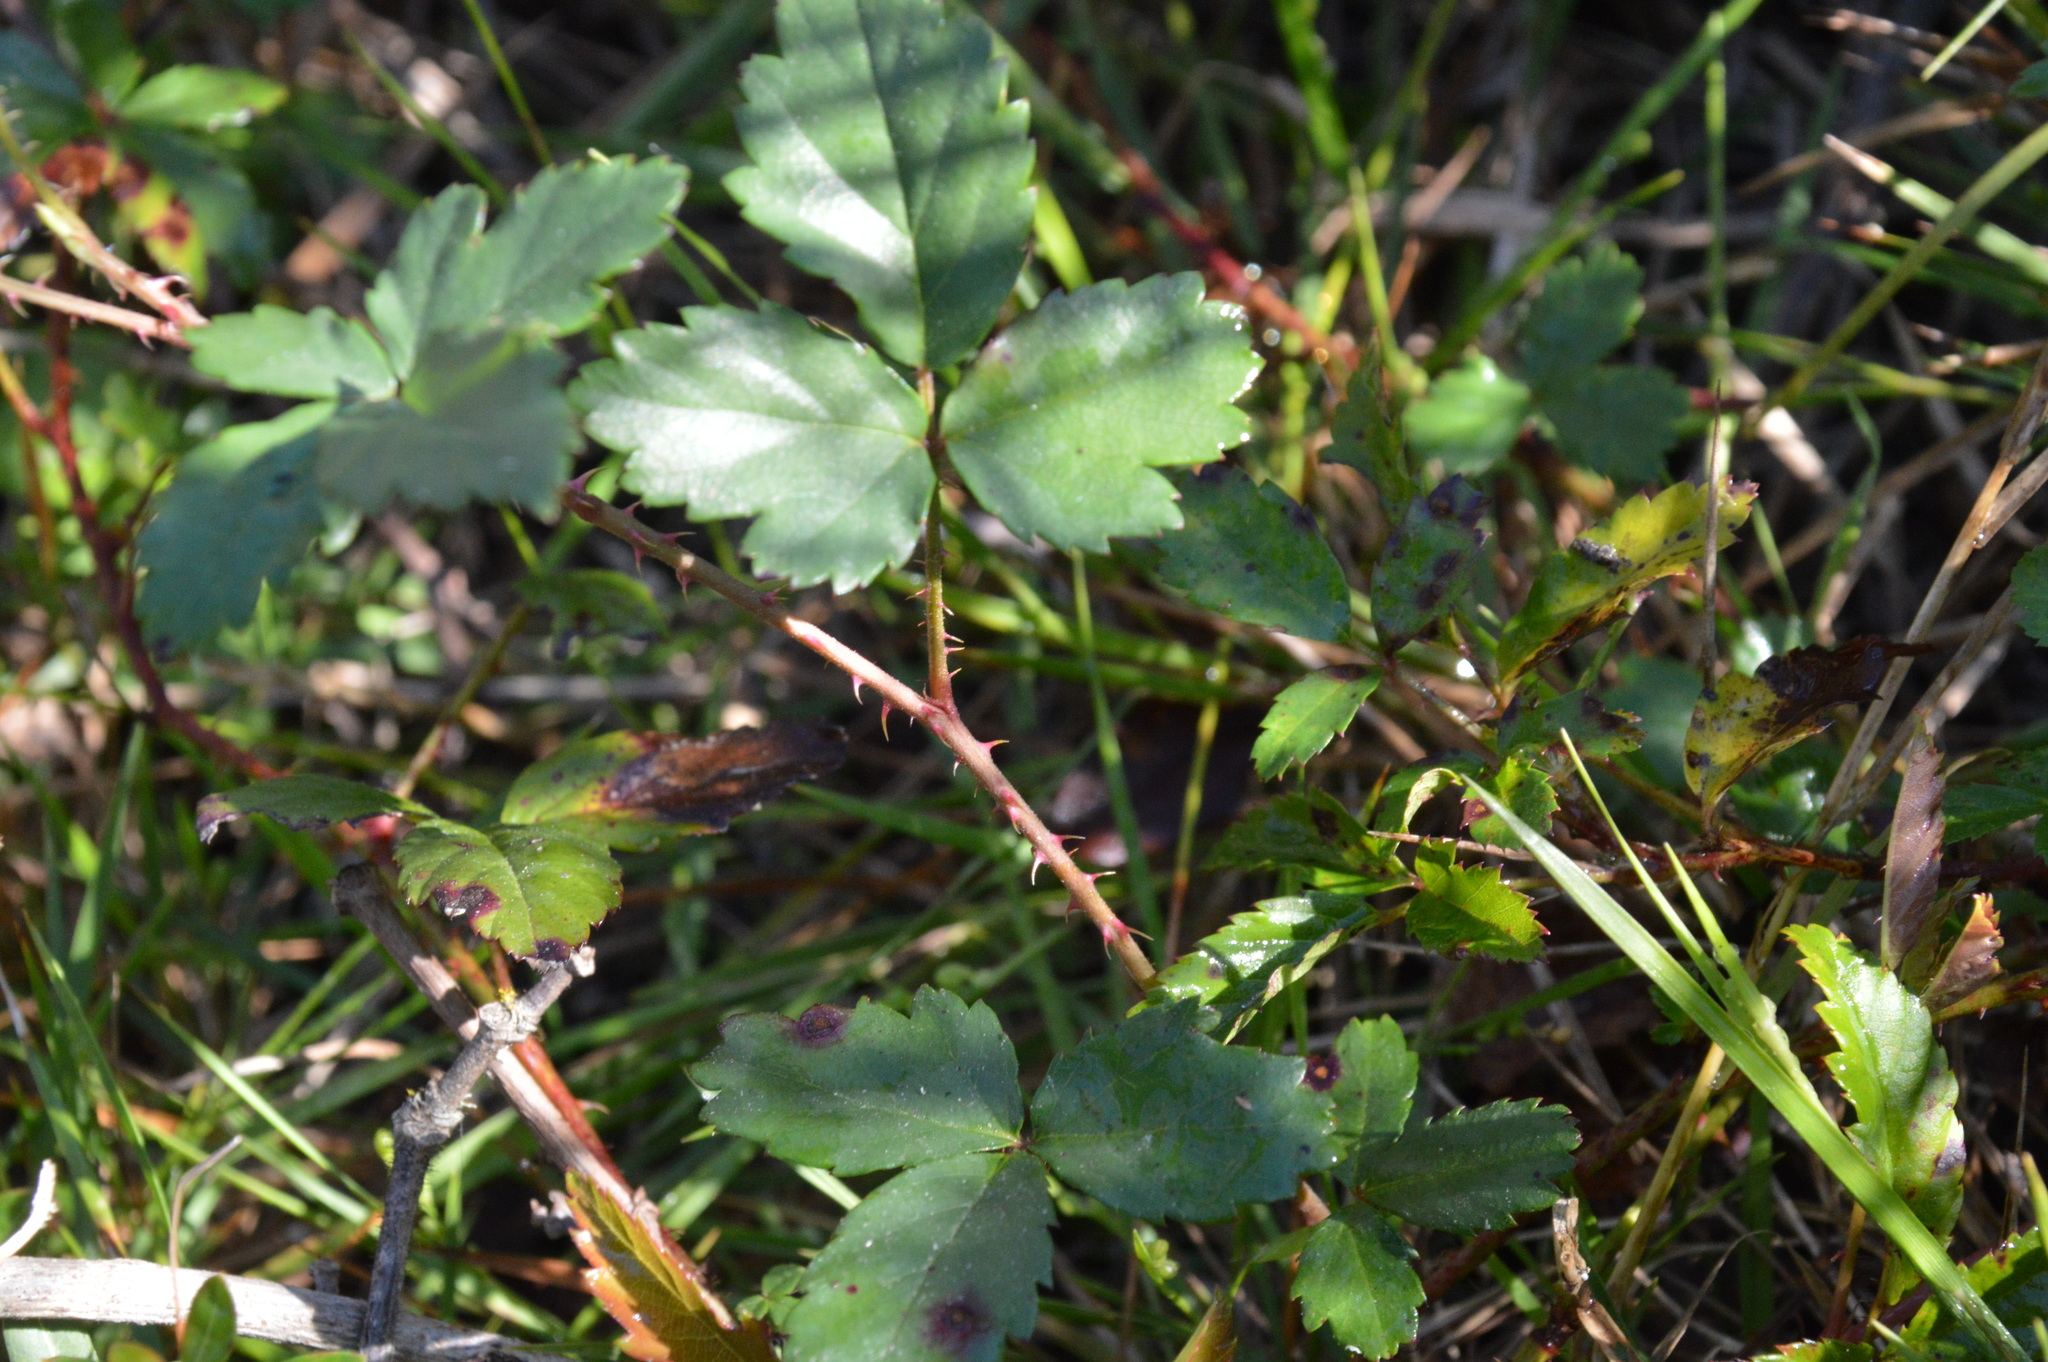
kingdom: Plantae
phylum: Tracheophyta
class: Magnoliopsida
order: Rosales
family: Rosaceae
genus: Rubus
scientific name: Rubus trivialis
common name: Southern dewberry
